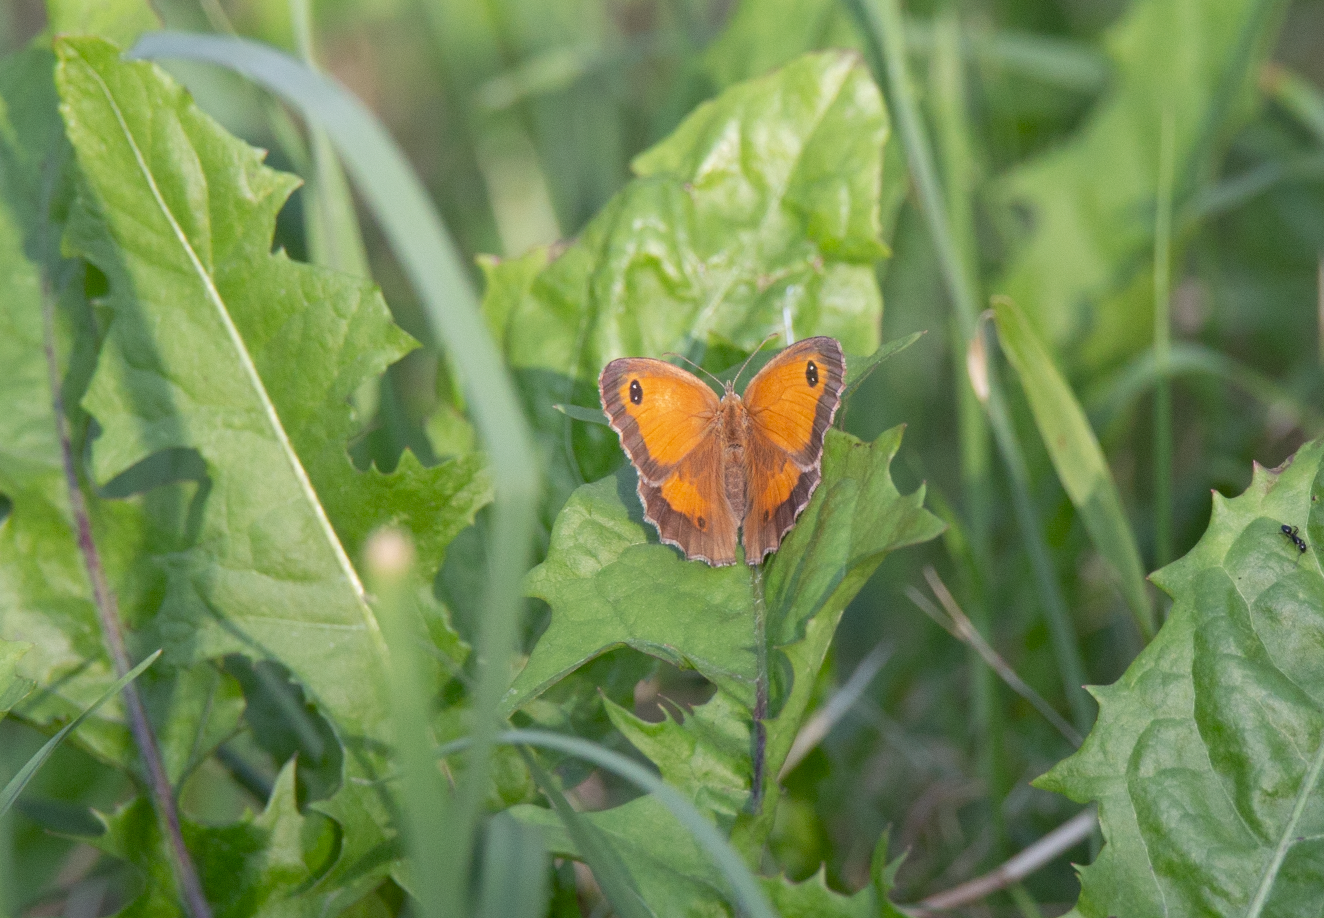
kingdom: Animalia
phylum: Arthropoda
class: Insecta
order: Lepidoptera
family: Nymphalidae
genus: Pyronia
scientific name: Pyronia tithonus
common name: Gatekeeper
